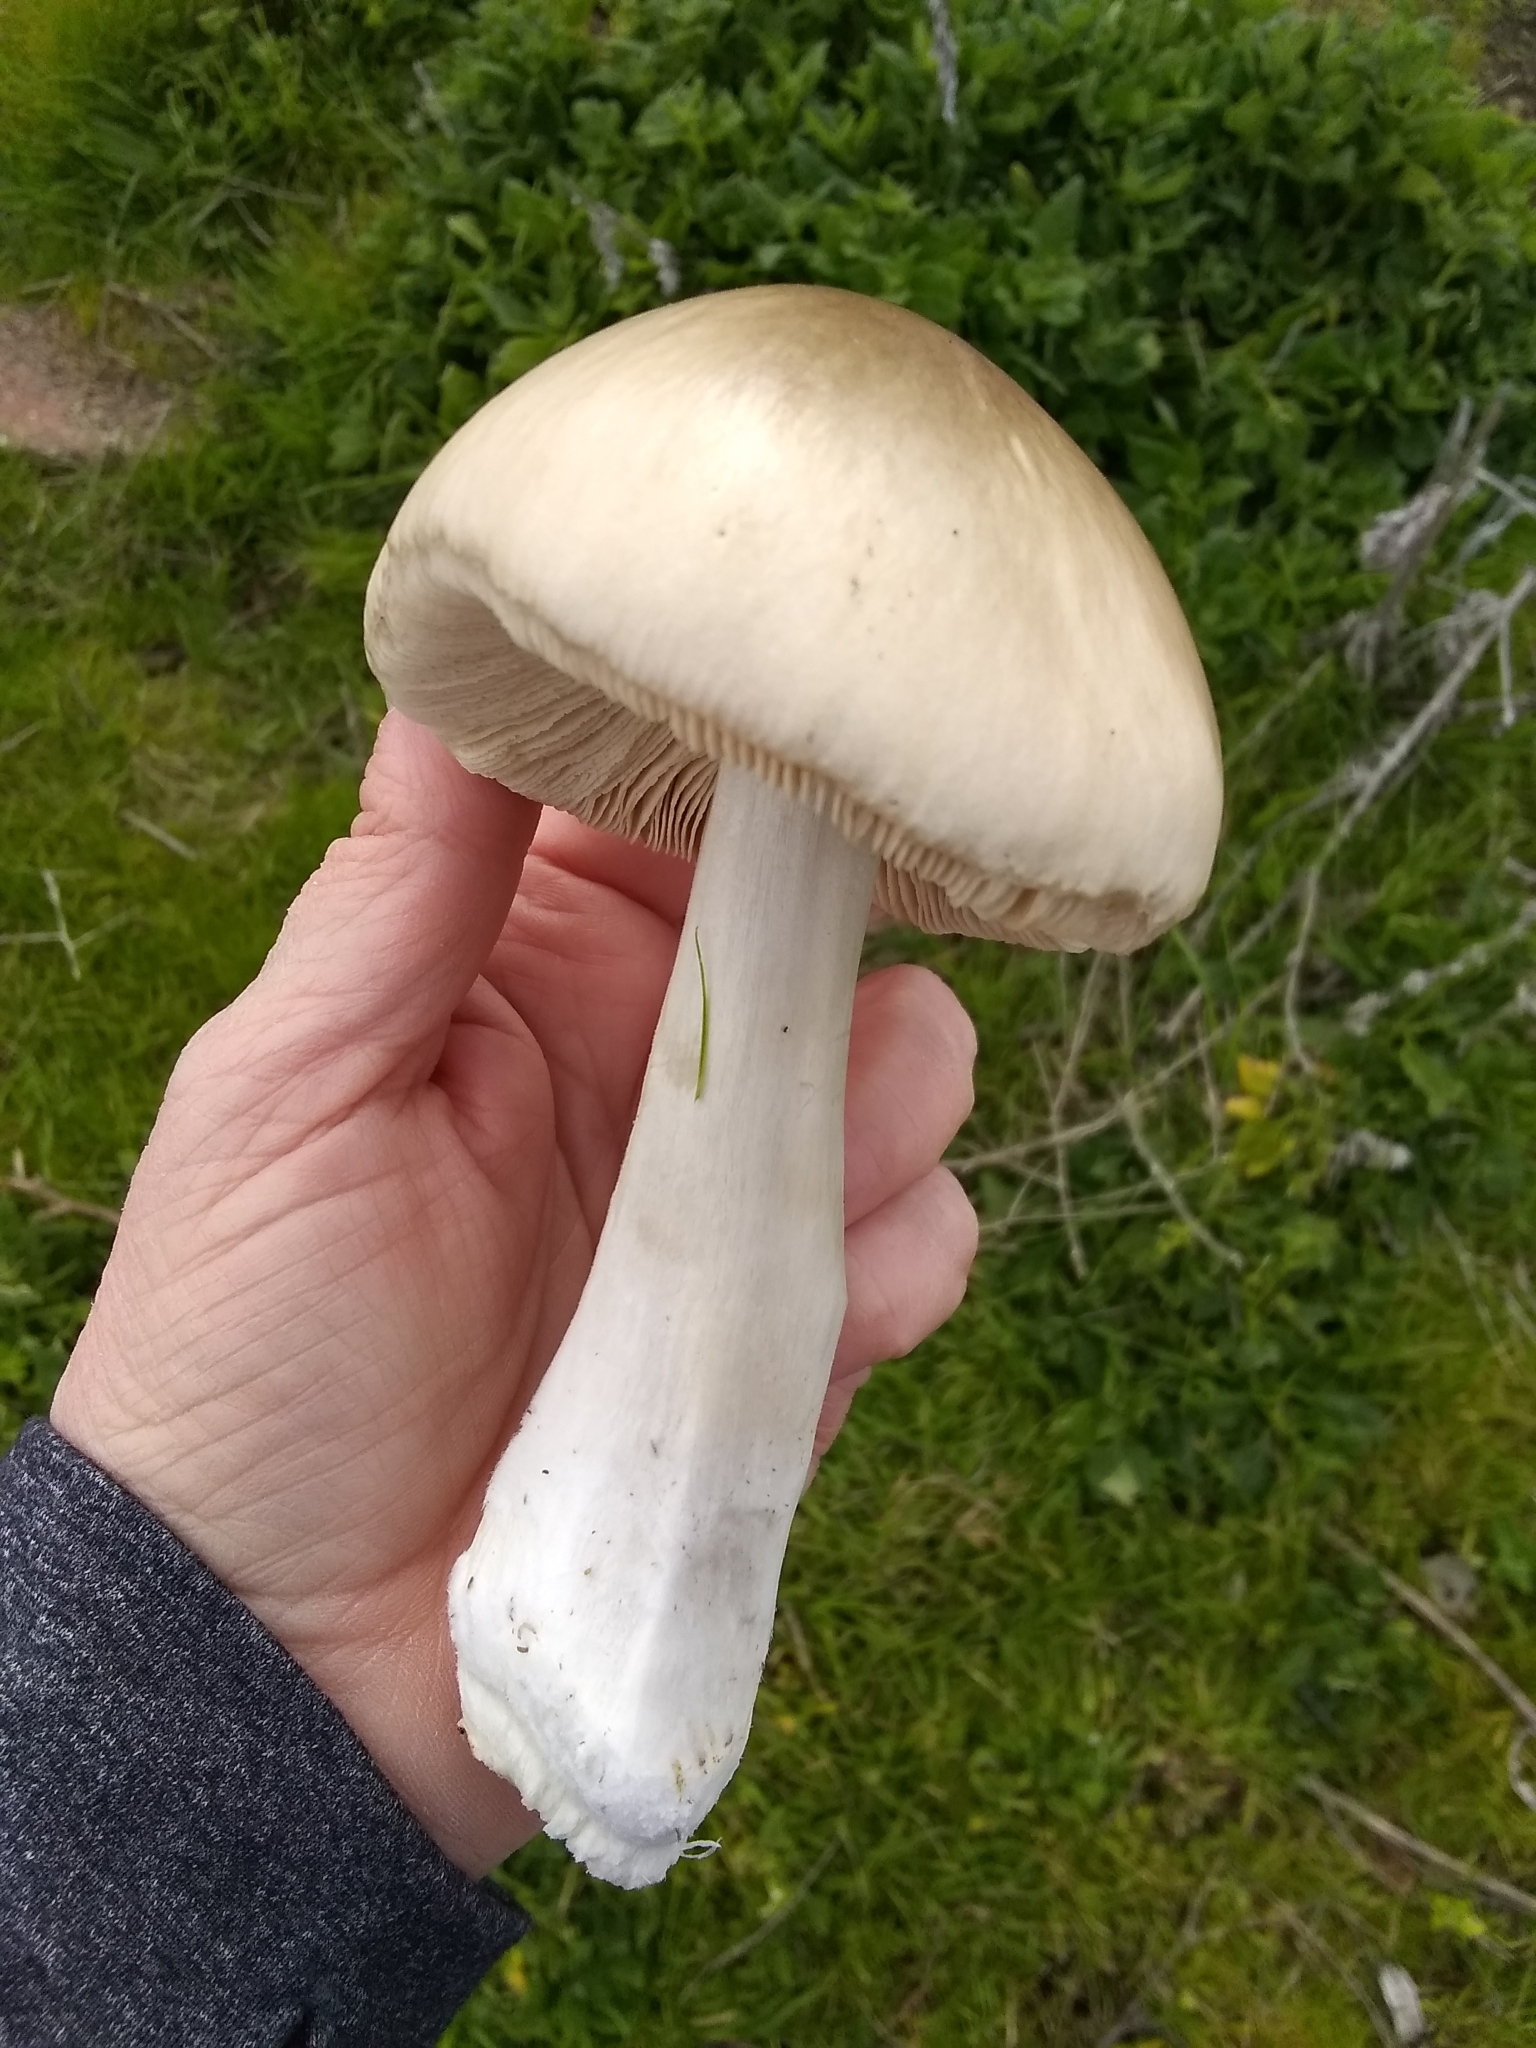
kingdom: Fungi
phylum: Basidiomycota
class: Agaricomycetes
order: Agaricales
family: Pluteaceae
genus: Volvopluteus
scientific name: Volvopluteus gloiocephalus
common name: Stubble rosegill
